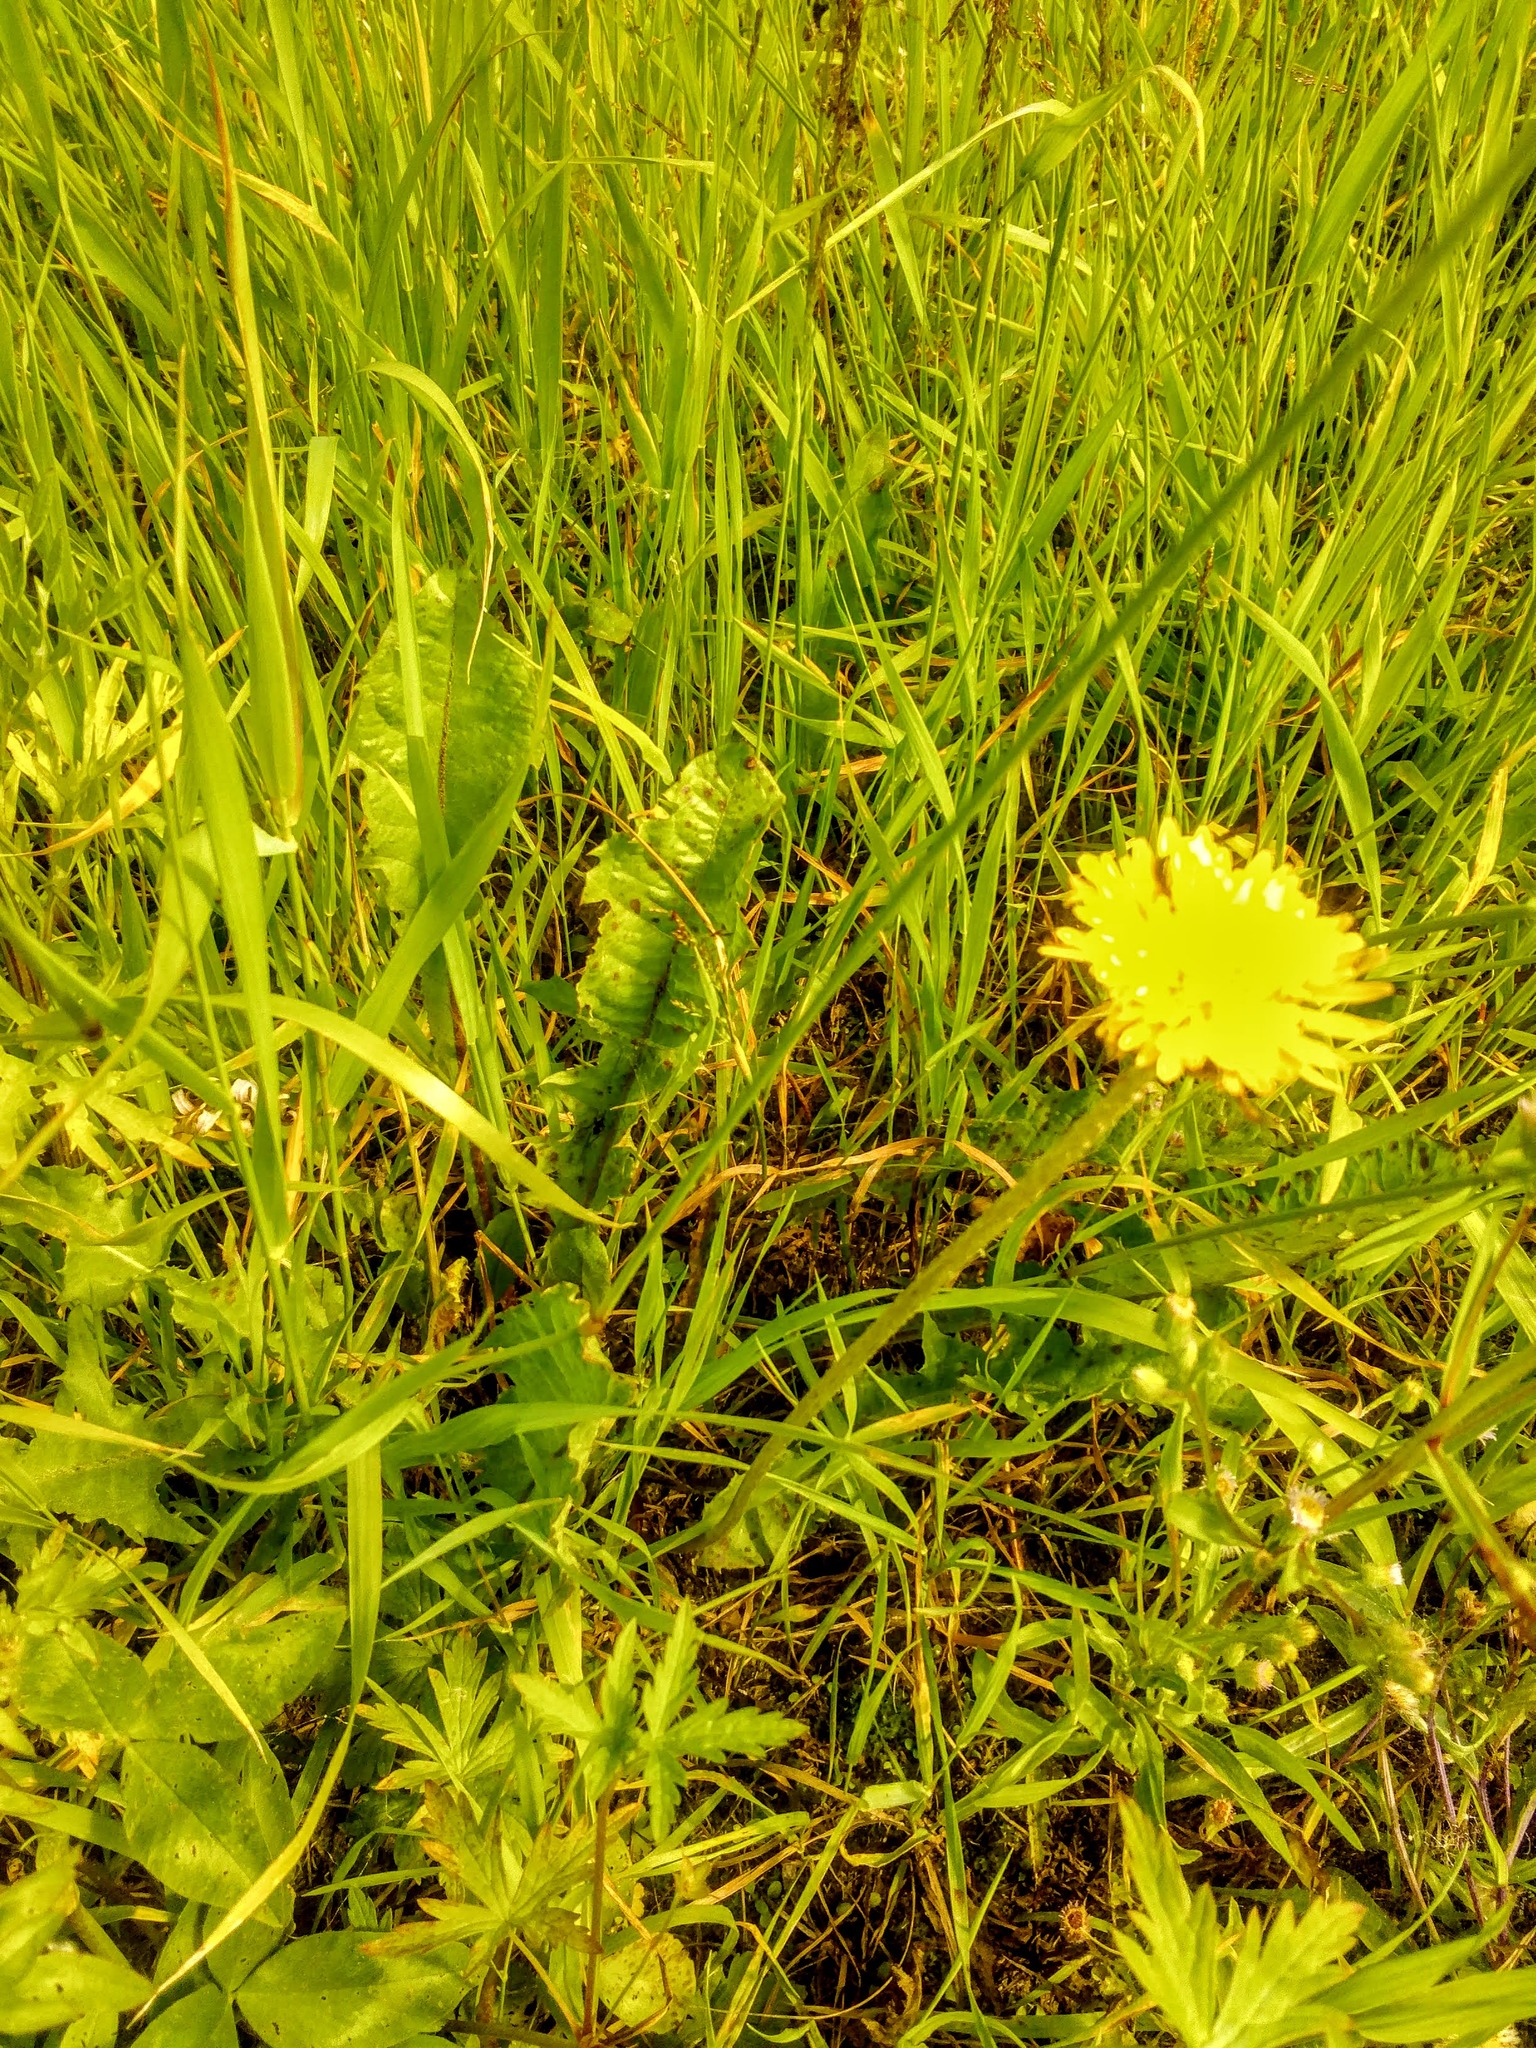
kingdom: Plantae
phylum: Tracheophyta
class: Magnoliopsida
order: Asterales
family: Asteraceae
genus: Taraxacum
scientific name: Taraxacum officinale
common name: Common dandelion
